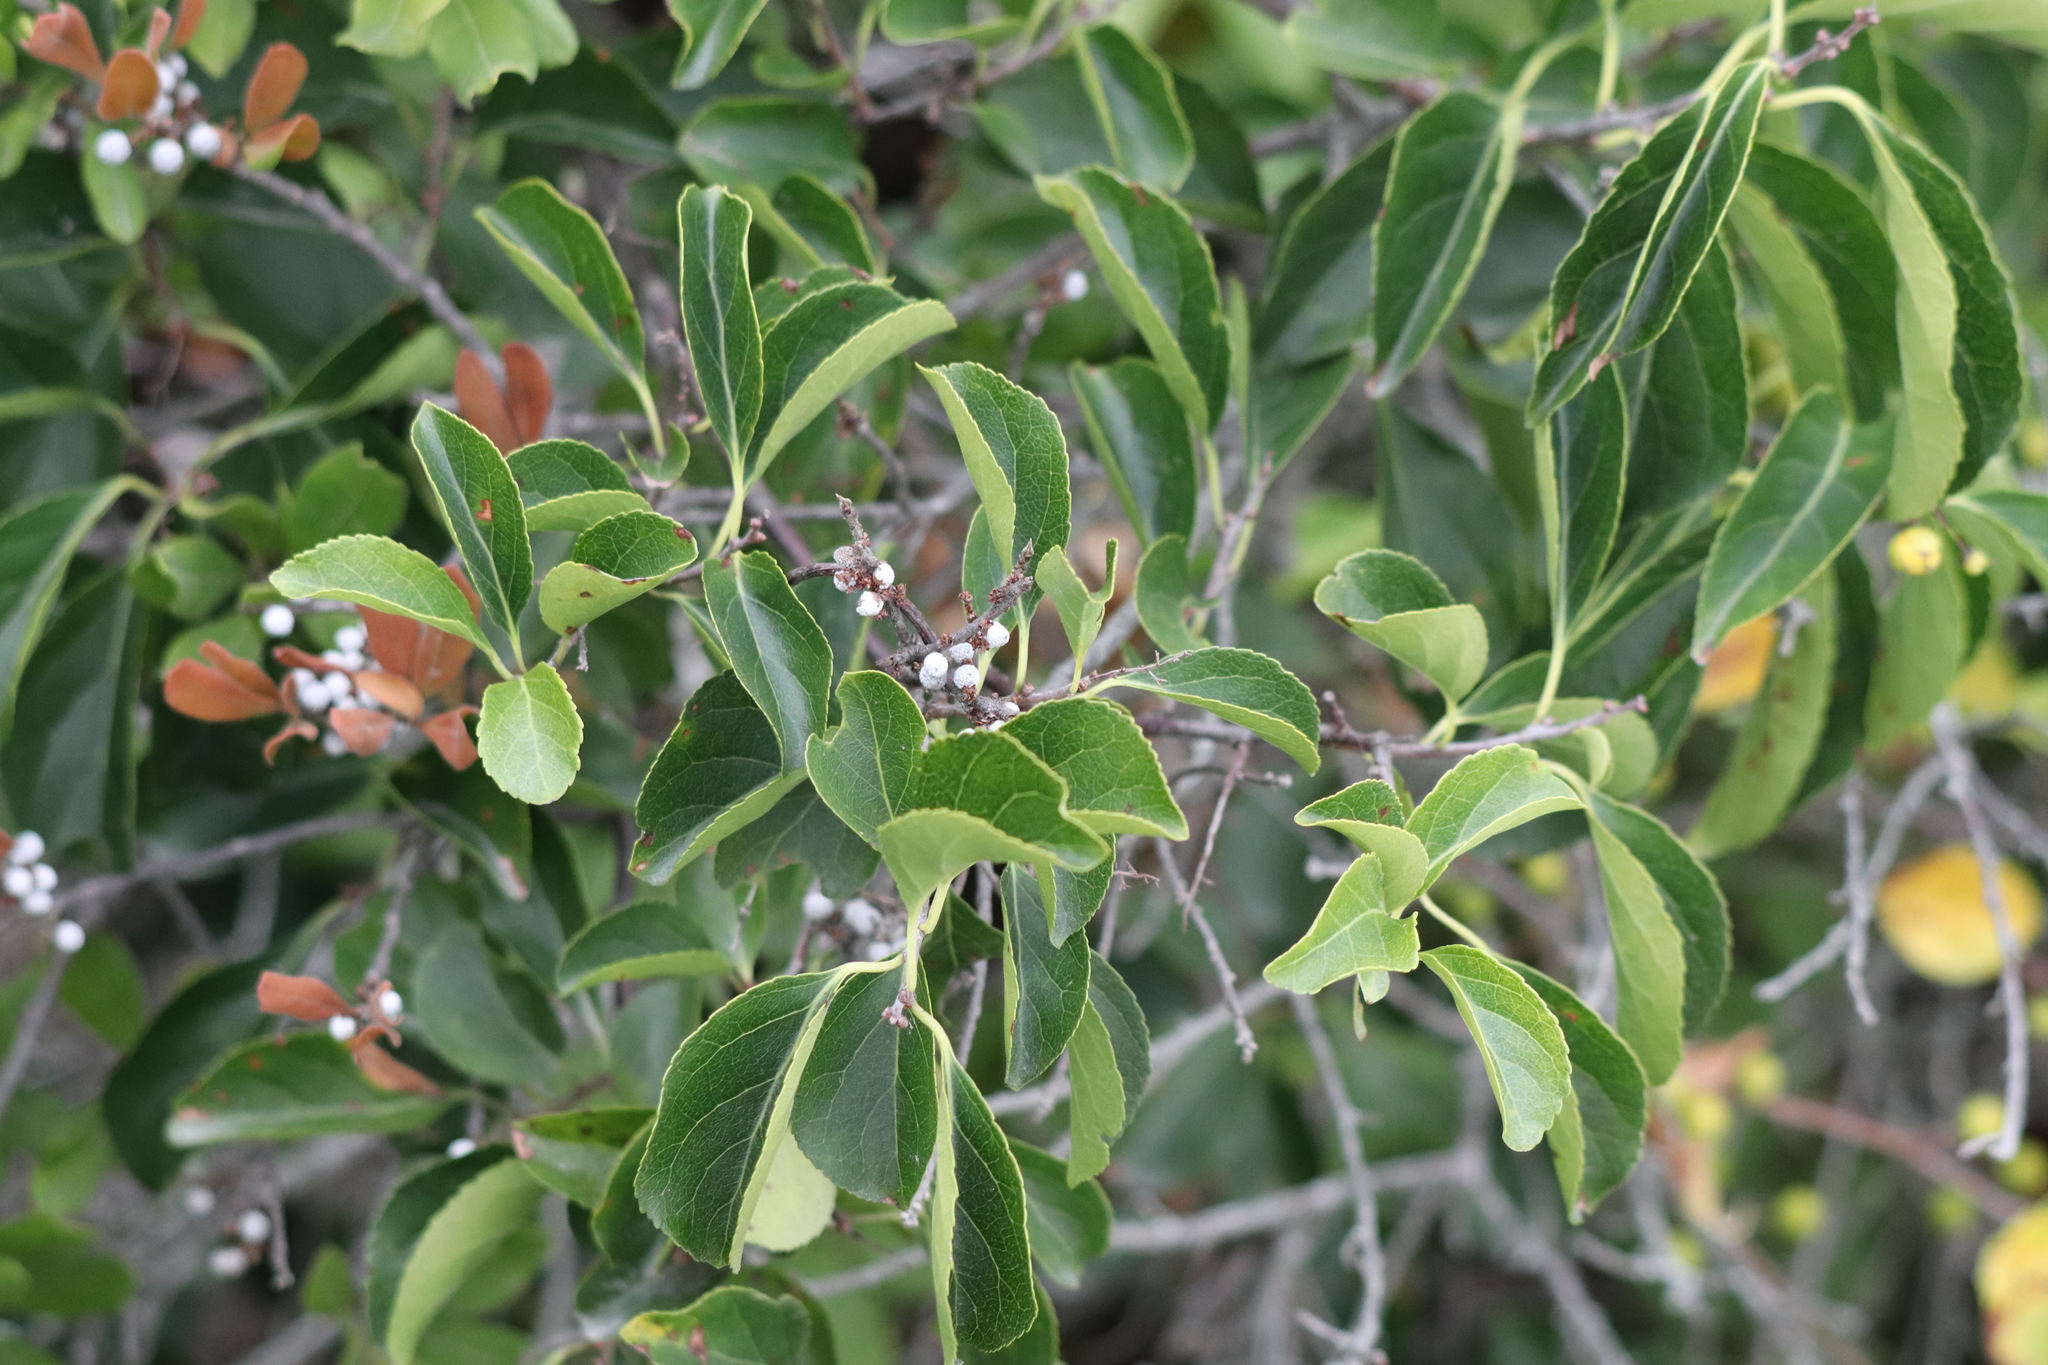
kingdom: Plantae
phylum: Tracheophyta
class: Magnoliopsida
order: Fagales
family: Myricaceae
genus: Morella
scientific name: Morella pensylvanica
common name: Northern bayberry
